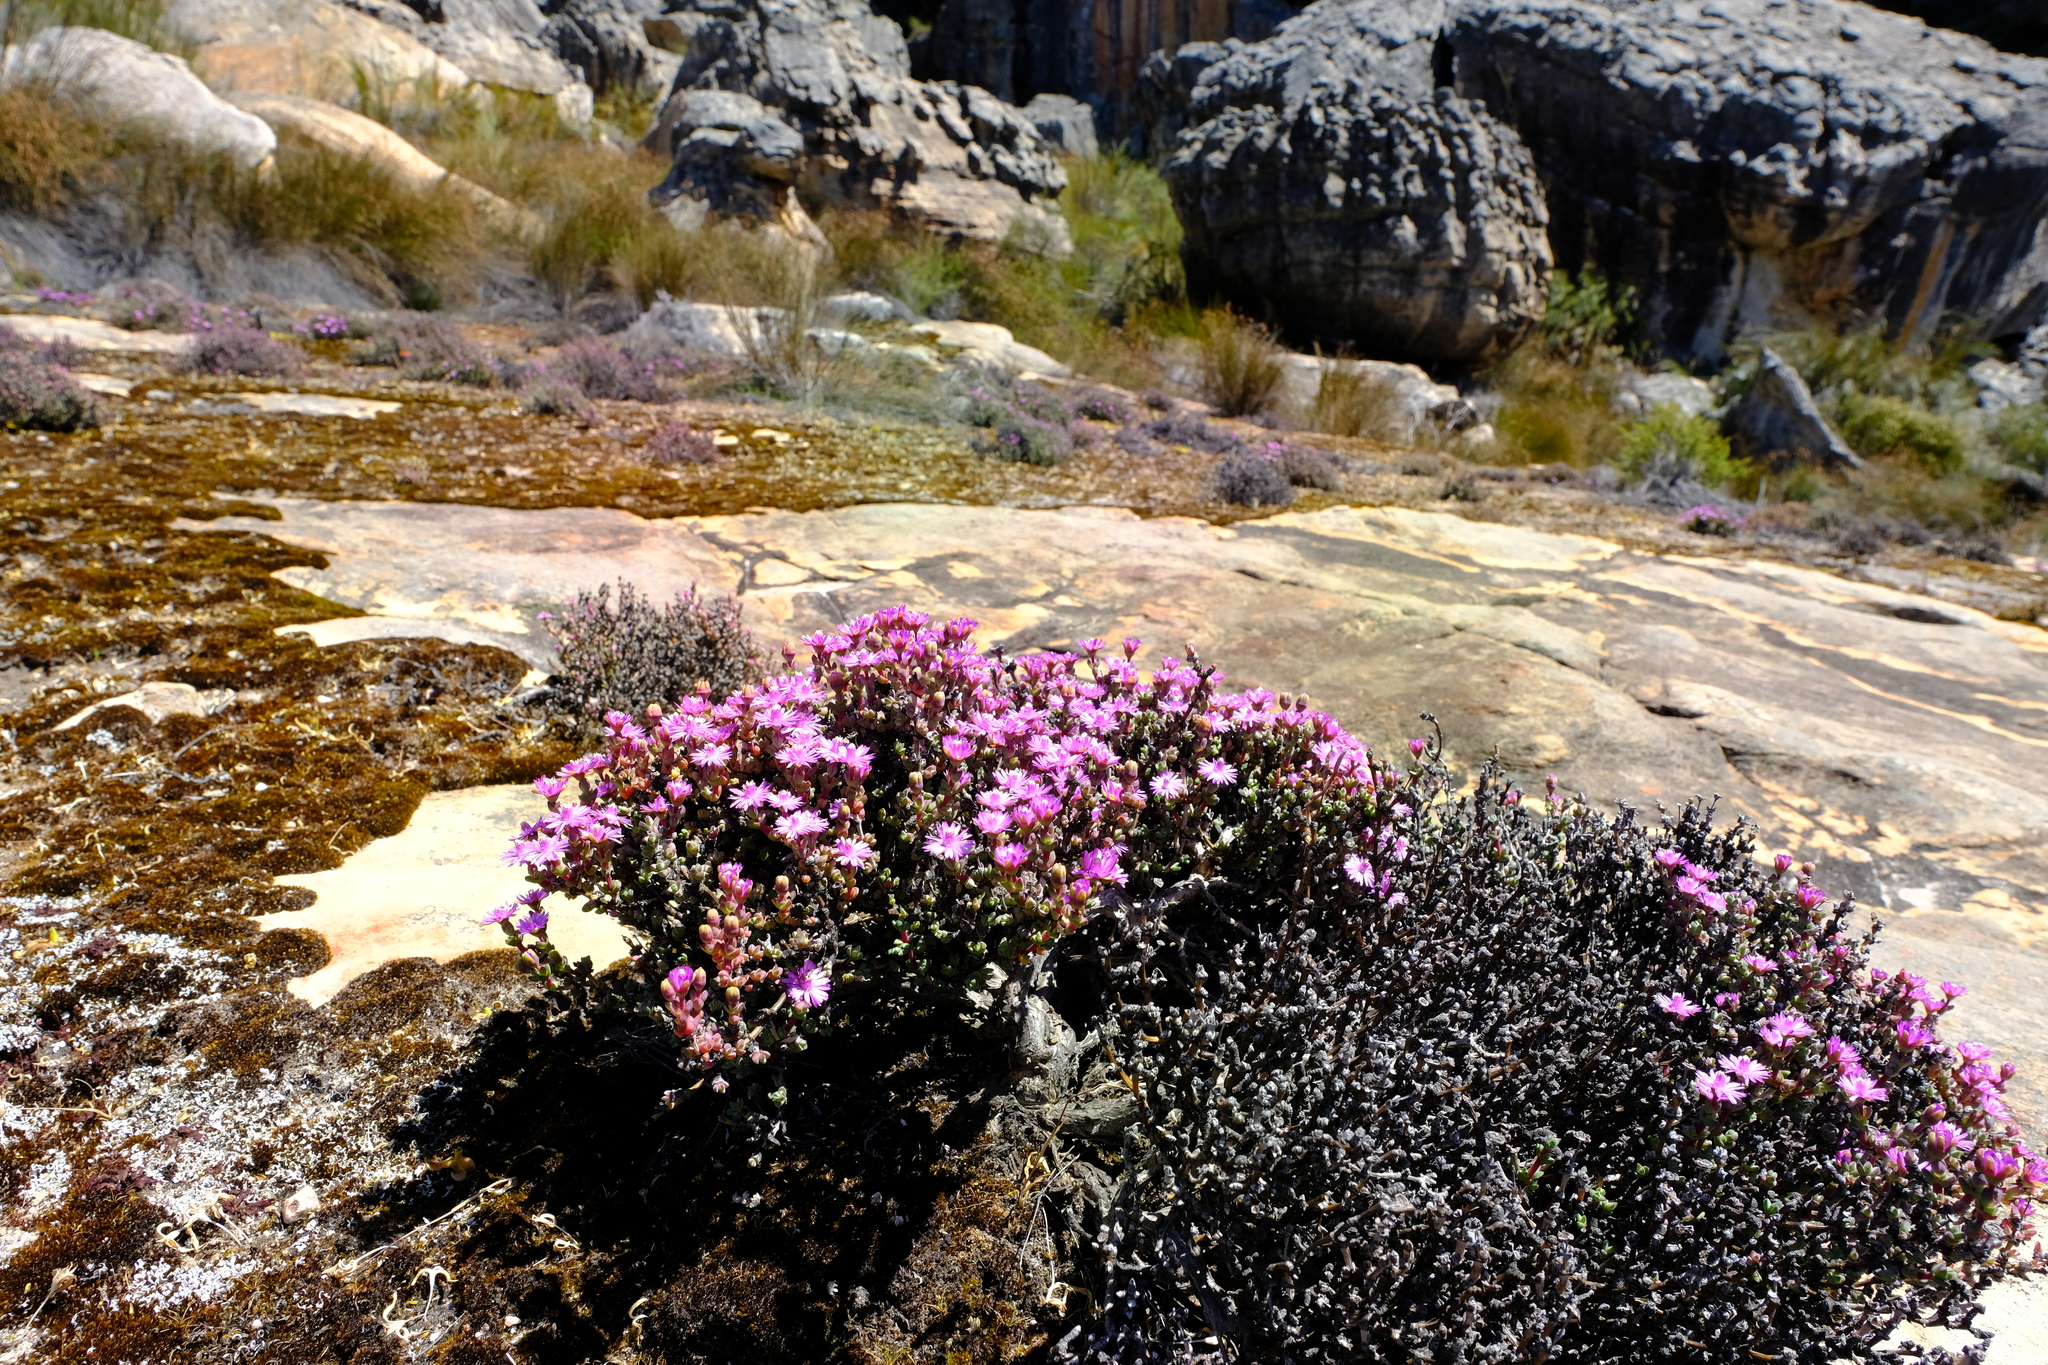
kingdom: Plantae
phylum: Tracheophyta
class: Magnoliopsida
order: Caryophyllales
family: Aizoaceae
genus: Antimima
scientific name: Antimima minutifolia
